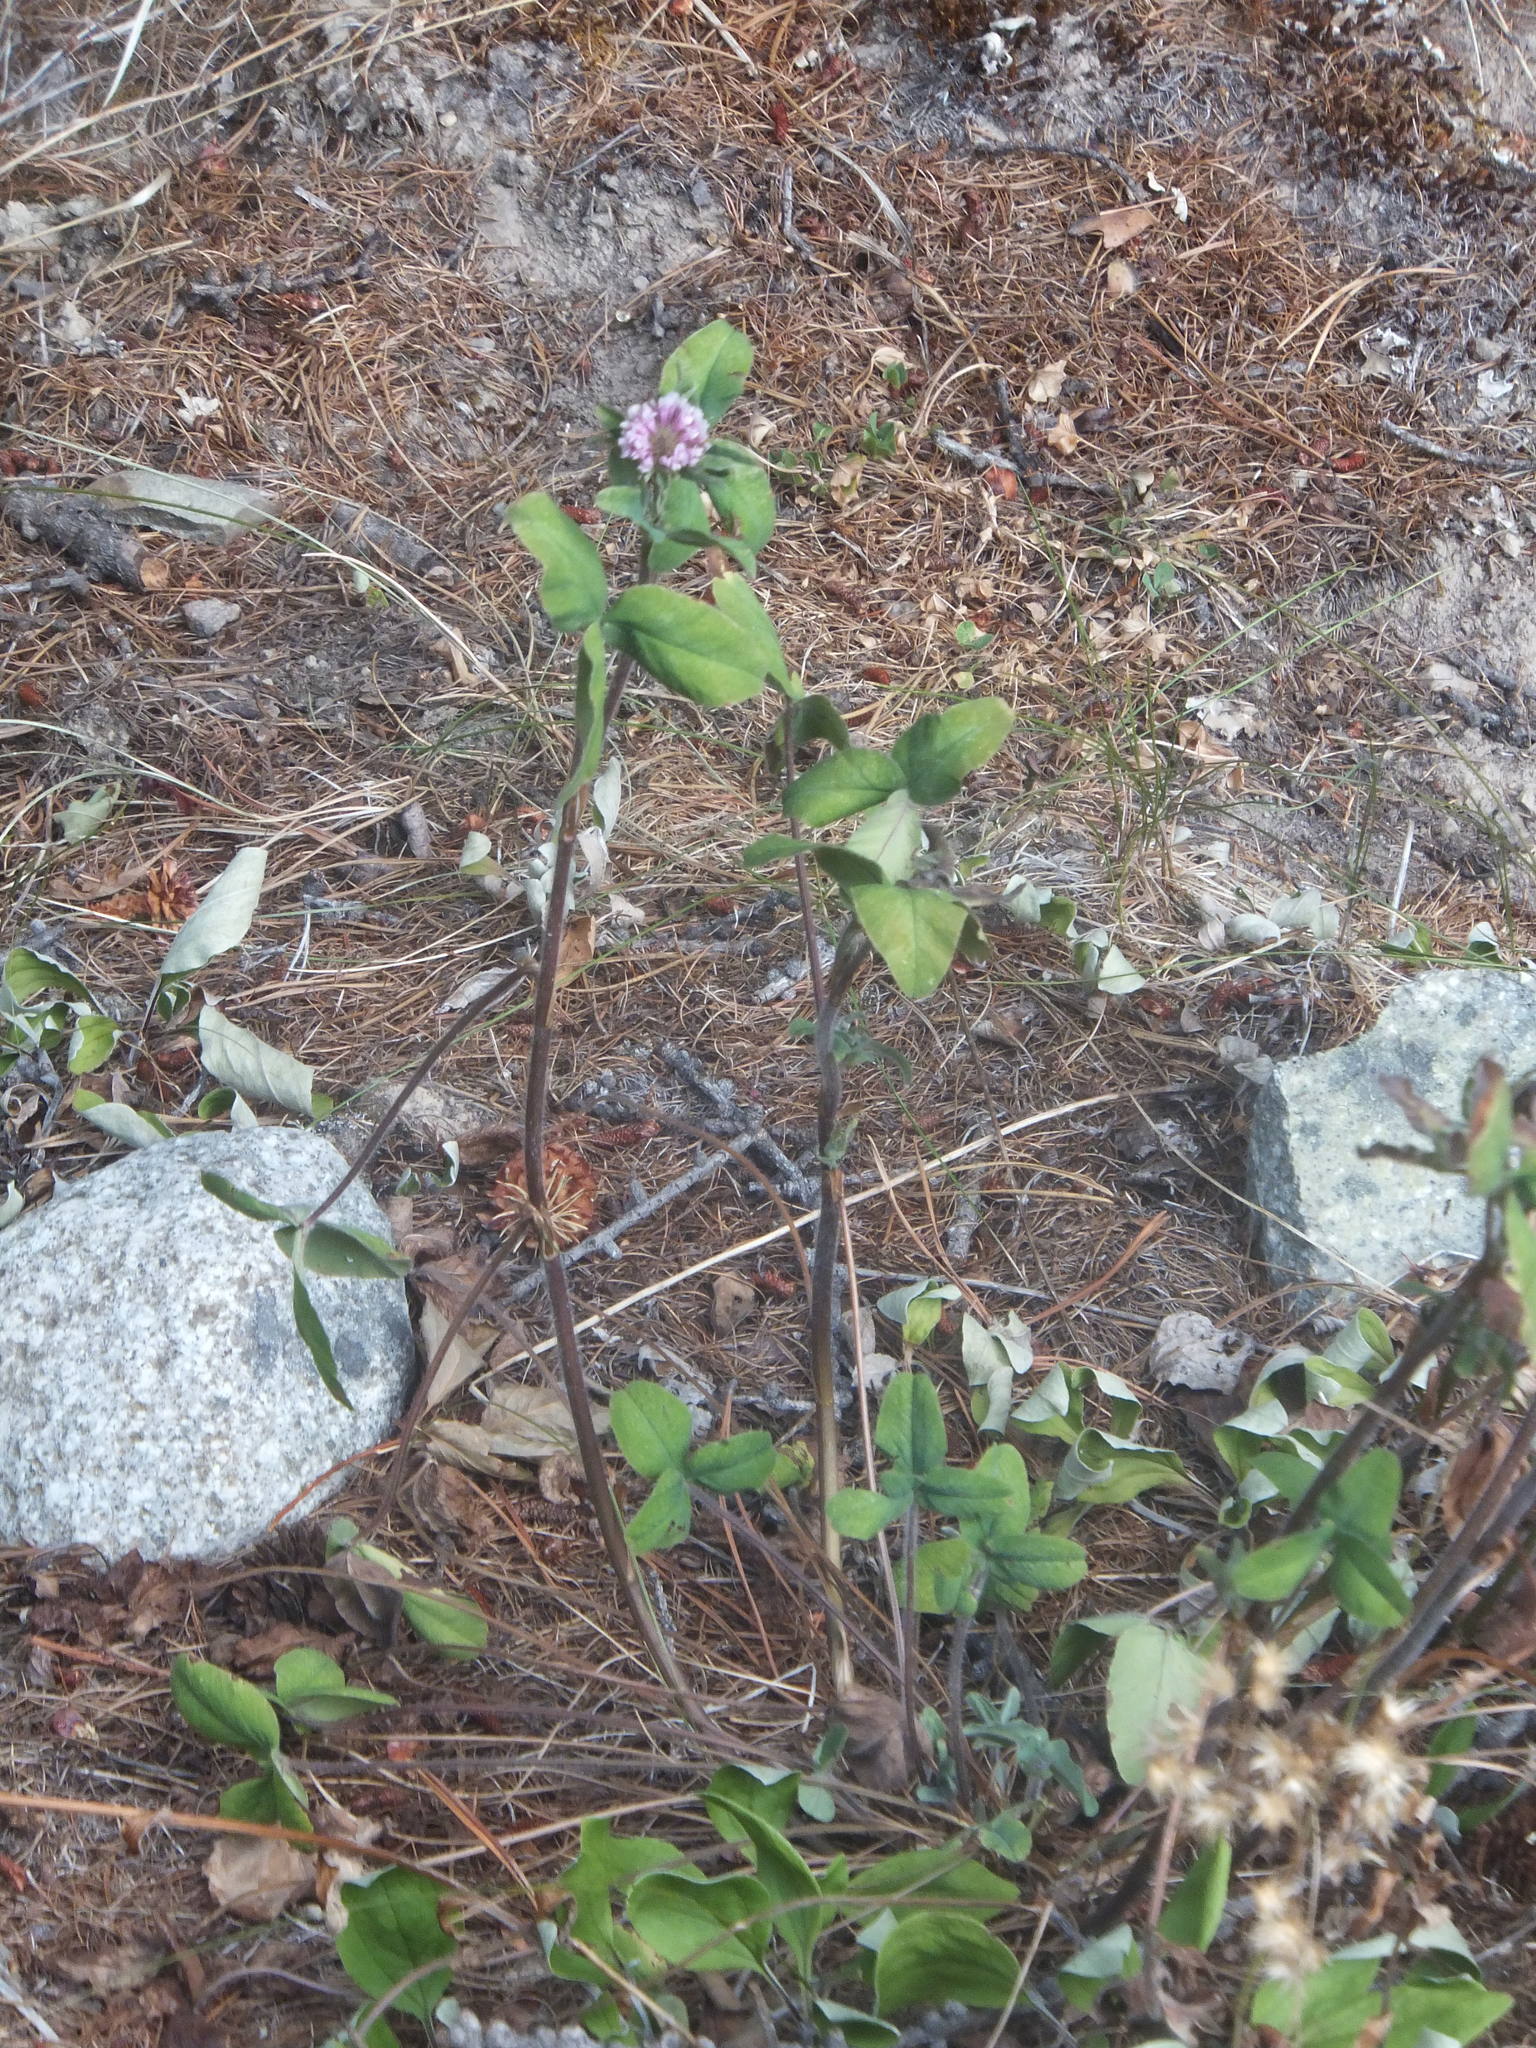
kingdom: Plantae
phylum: Tracheophyta
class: Magnoliopsida
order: Fabales
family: Fabaceae
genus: Trifolium
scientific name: Trifolium pratense
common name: Red clover
